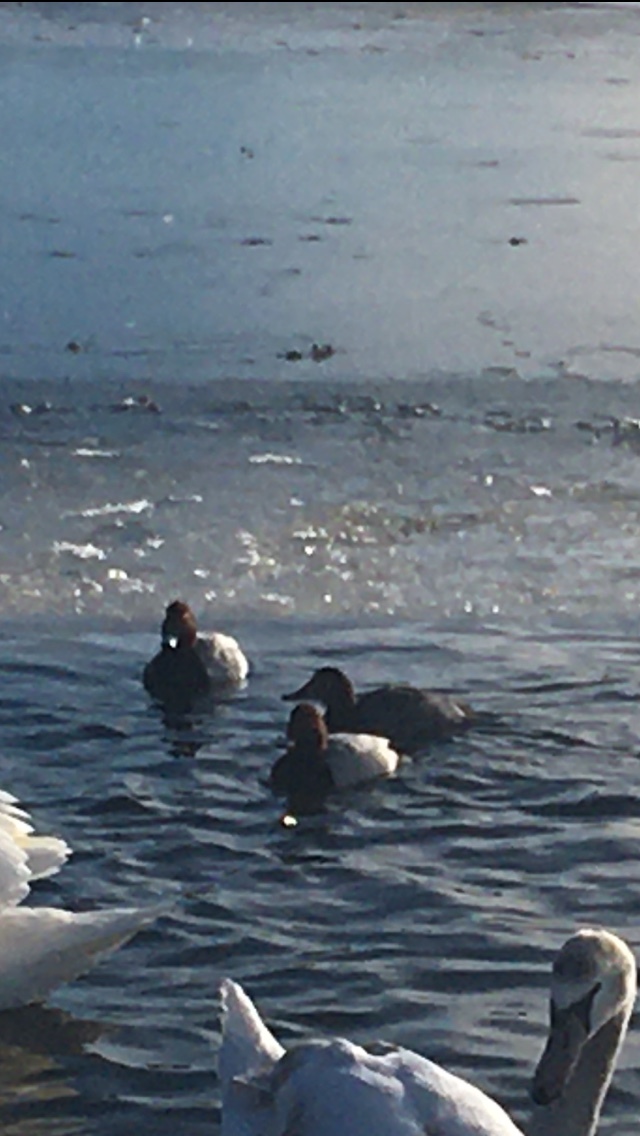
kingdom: Animalia
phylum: Chordata
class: Aves
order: Anseriformes
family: Anatidae
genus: Aythya
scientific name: Aythya ferina
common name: Common pochard
